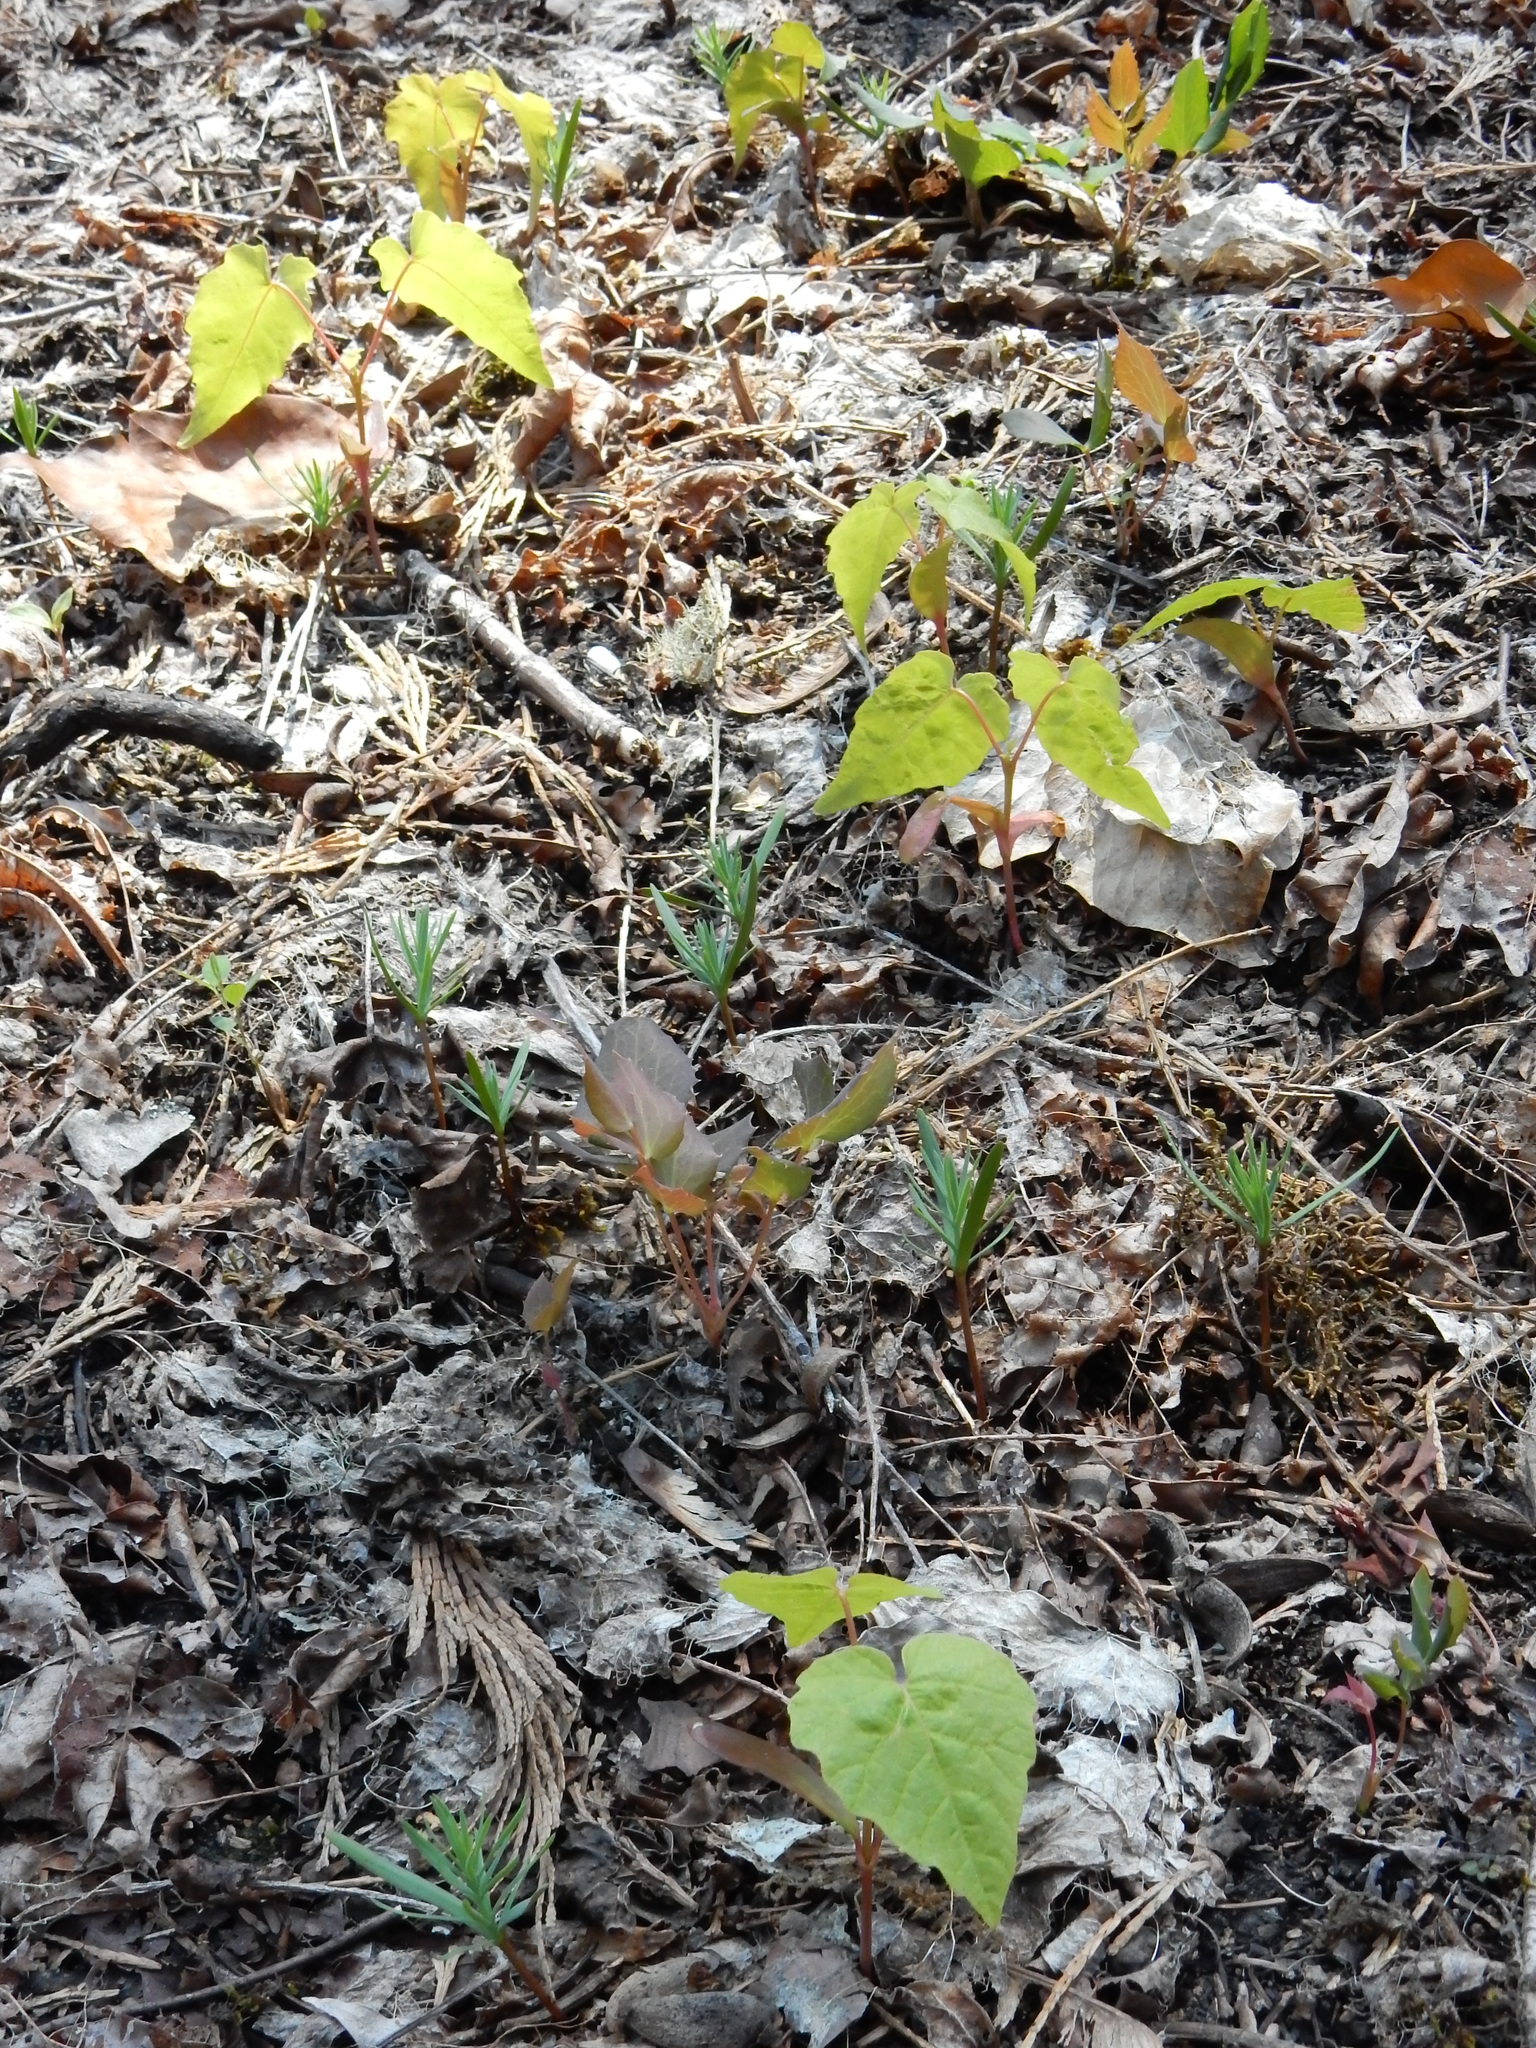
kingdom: Plantae
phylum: Tracheophyta
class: Magnoliopsida
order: Sapindales
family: Sapindaceae
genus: Acer
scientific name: Acer macrophyllum
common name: Oregon maple
